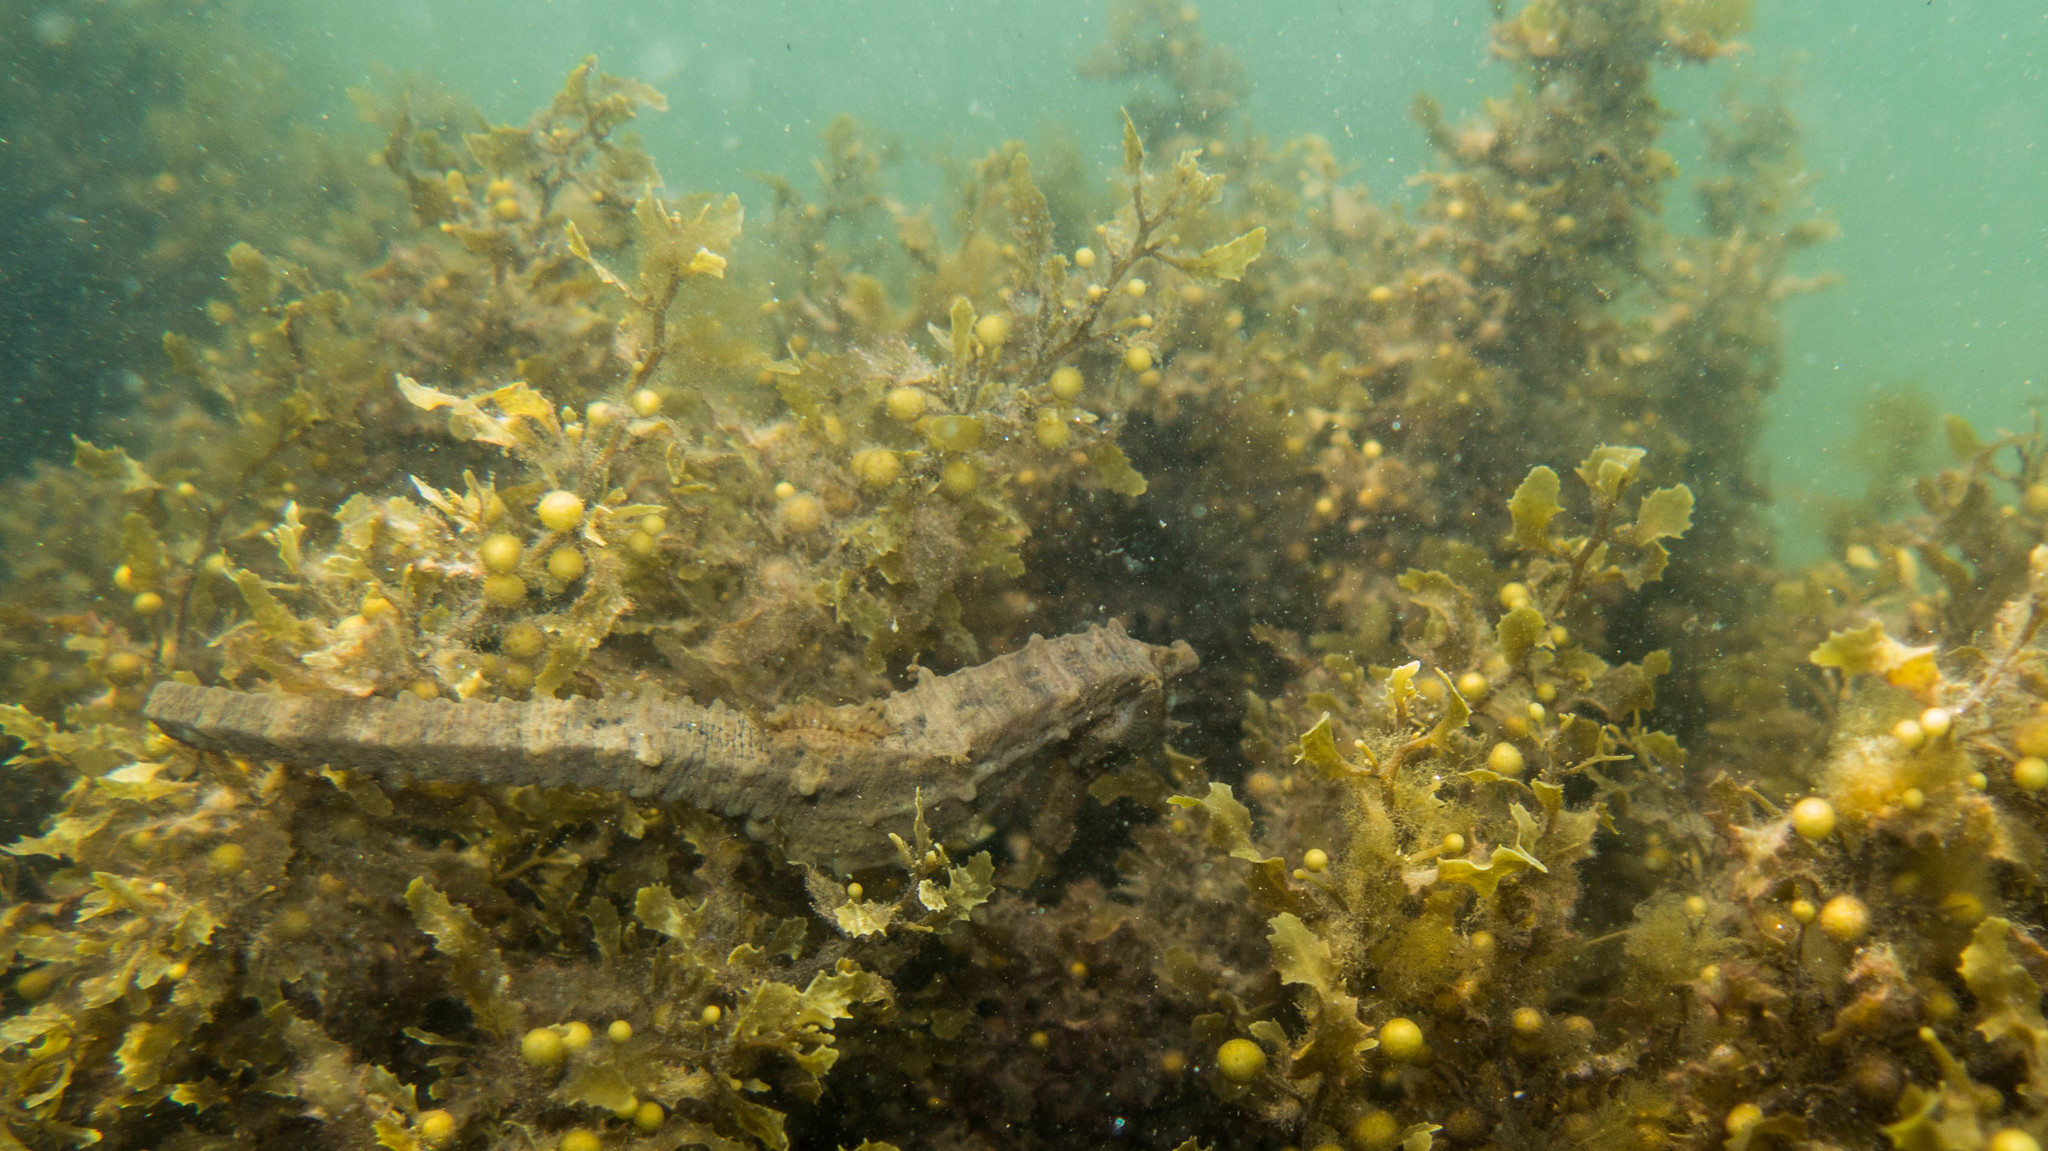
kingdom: Animalia
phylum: Chordata
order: Syngnathiformes
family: Syngnathidae
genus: Hippocampus
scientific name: Hippocampus reidi
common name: Slender seahorse
